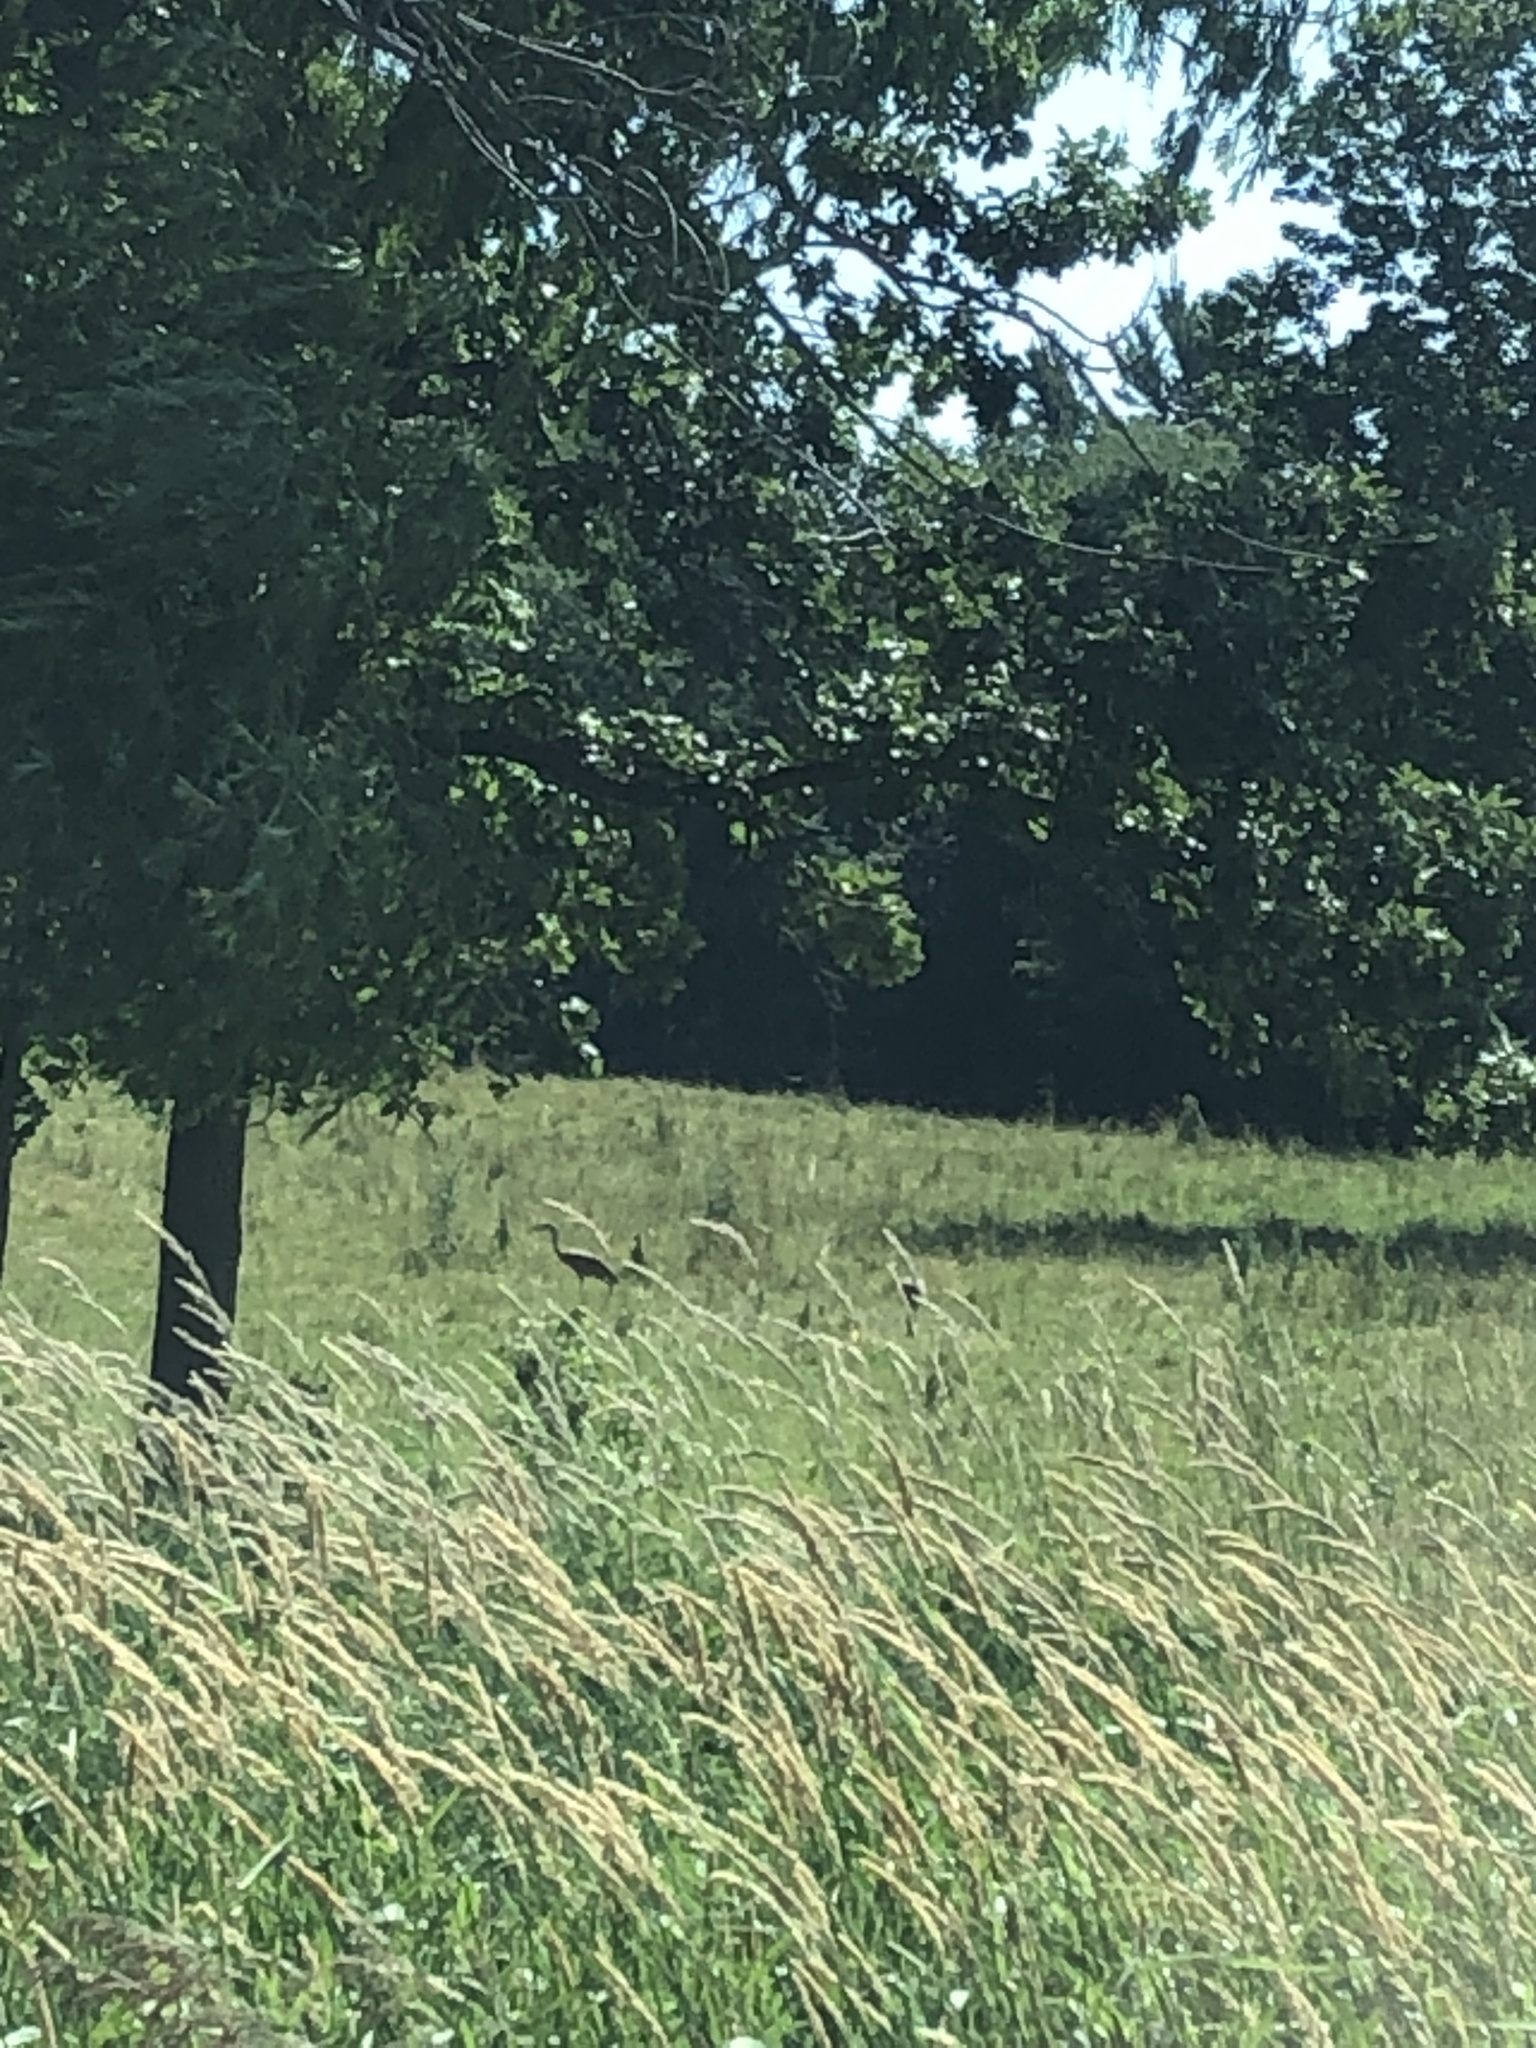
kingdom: Animalia
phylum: Chordata
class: Aves
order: Gruiformes
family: Gruidae
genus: Grus
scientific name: Grus canadensis
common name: Sandhill crane
